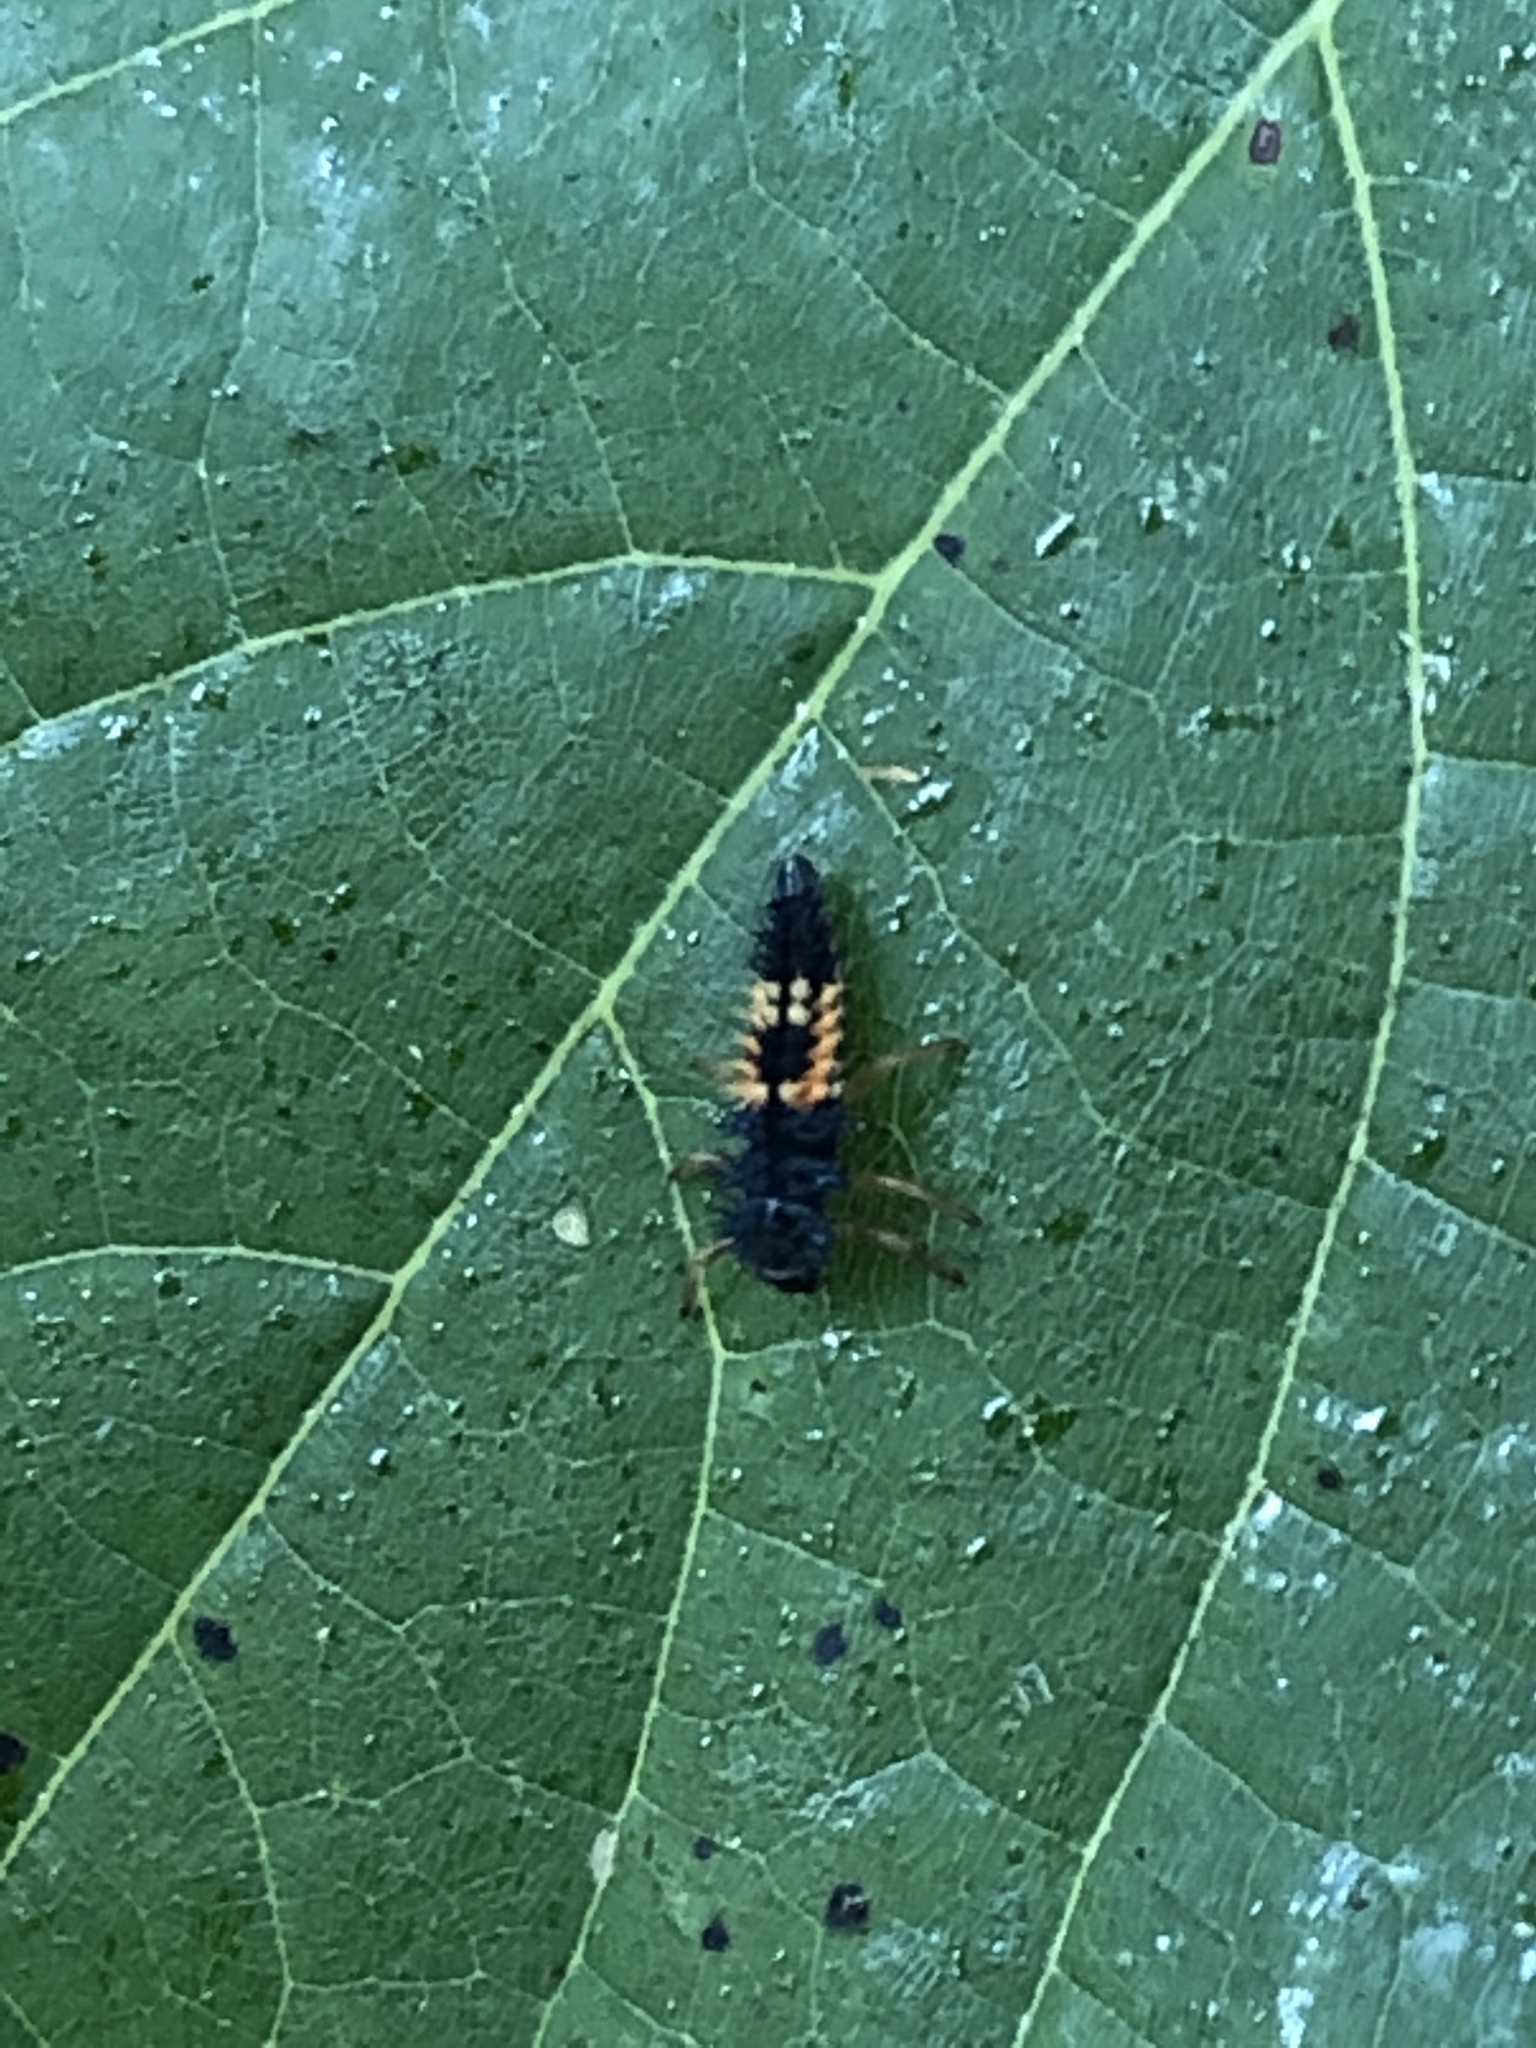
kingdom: Animalia
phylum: Arthropoda
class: Insecta
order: Coleoptera
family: Coccinellidae
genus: Harmonia
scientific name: Harmonia axyridis
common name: Harlequin ladybird
